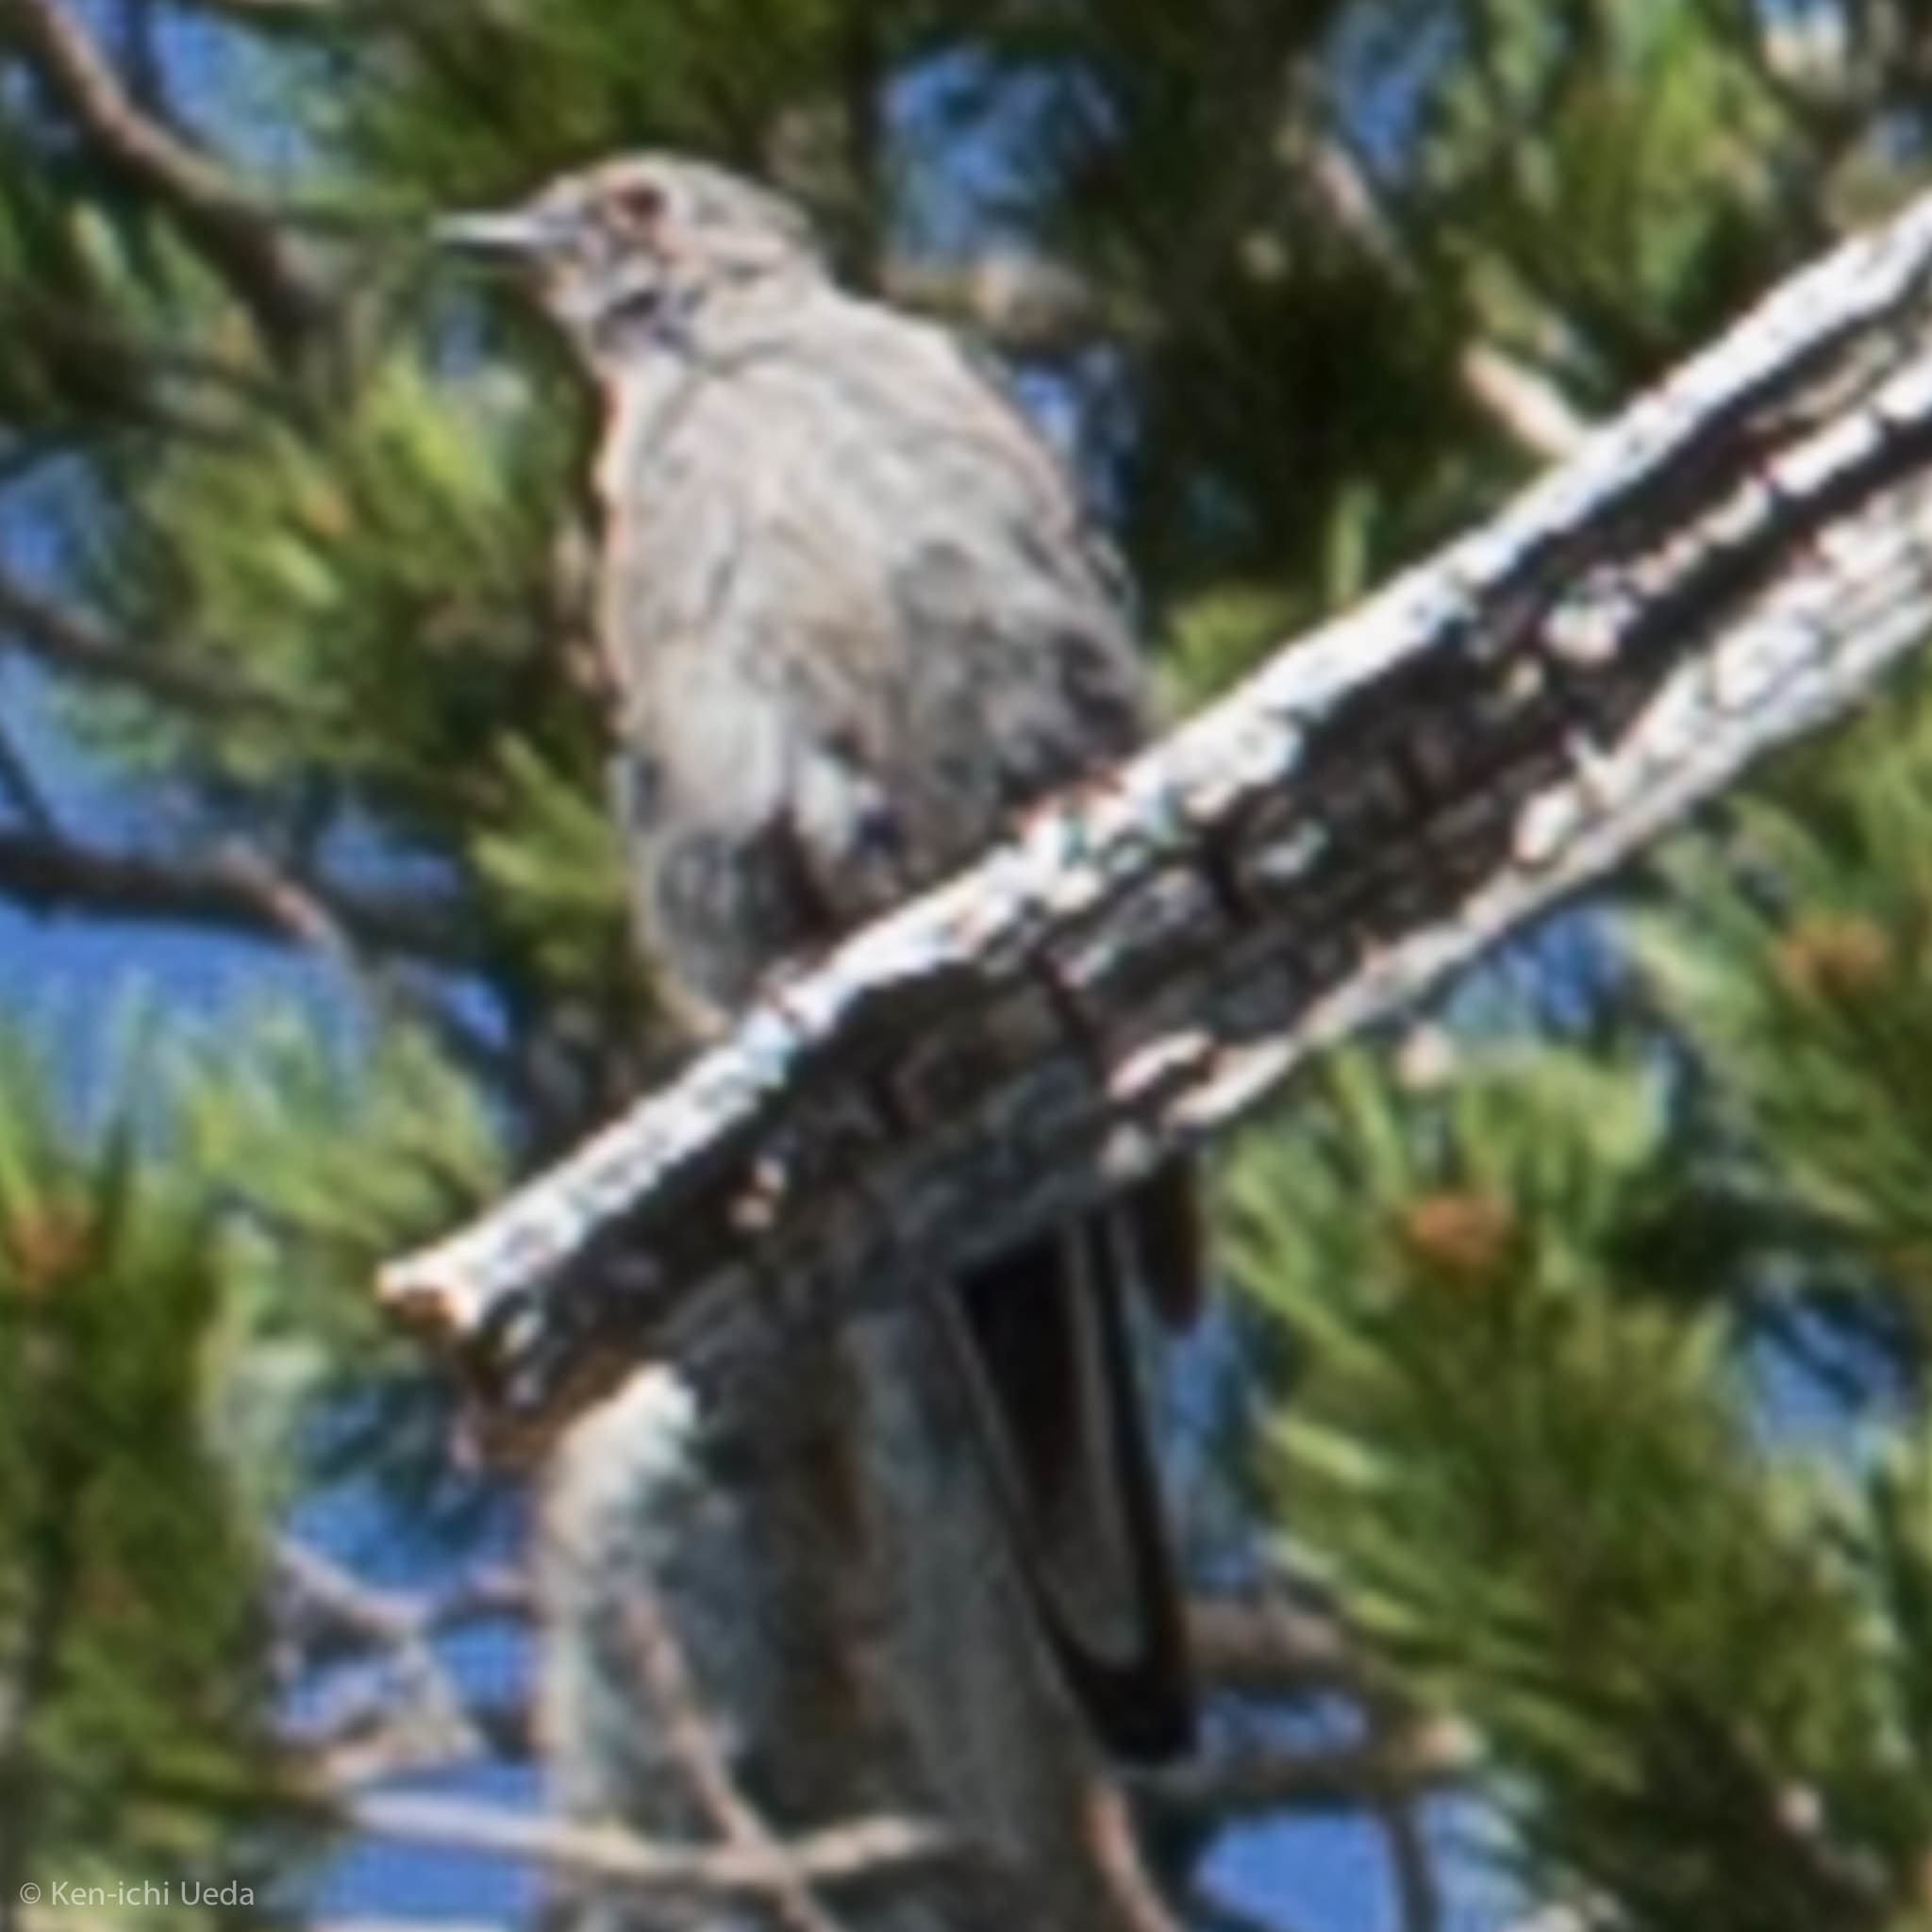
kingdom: Animalia
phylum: Chordata
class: Aves
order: Passeriformes
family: Turdidae
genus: Myadestes
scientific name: Myadestes townsendi
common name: Townsend's solitaire
